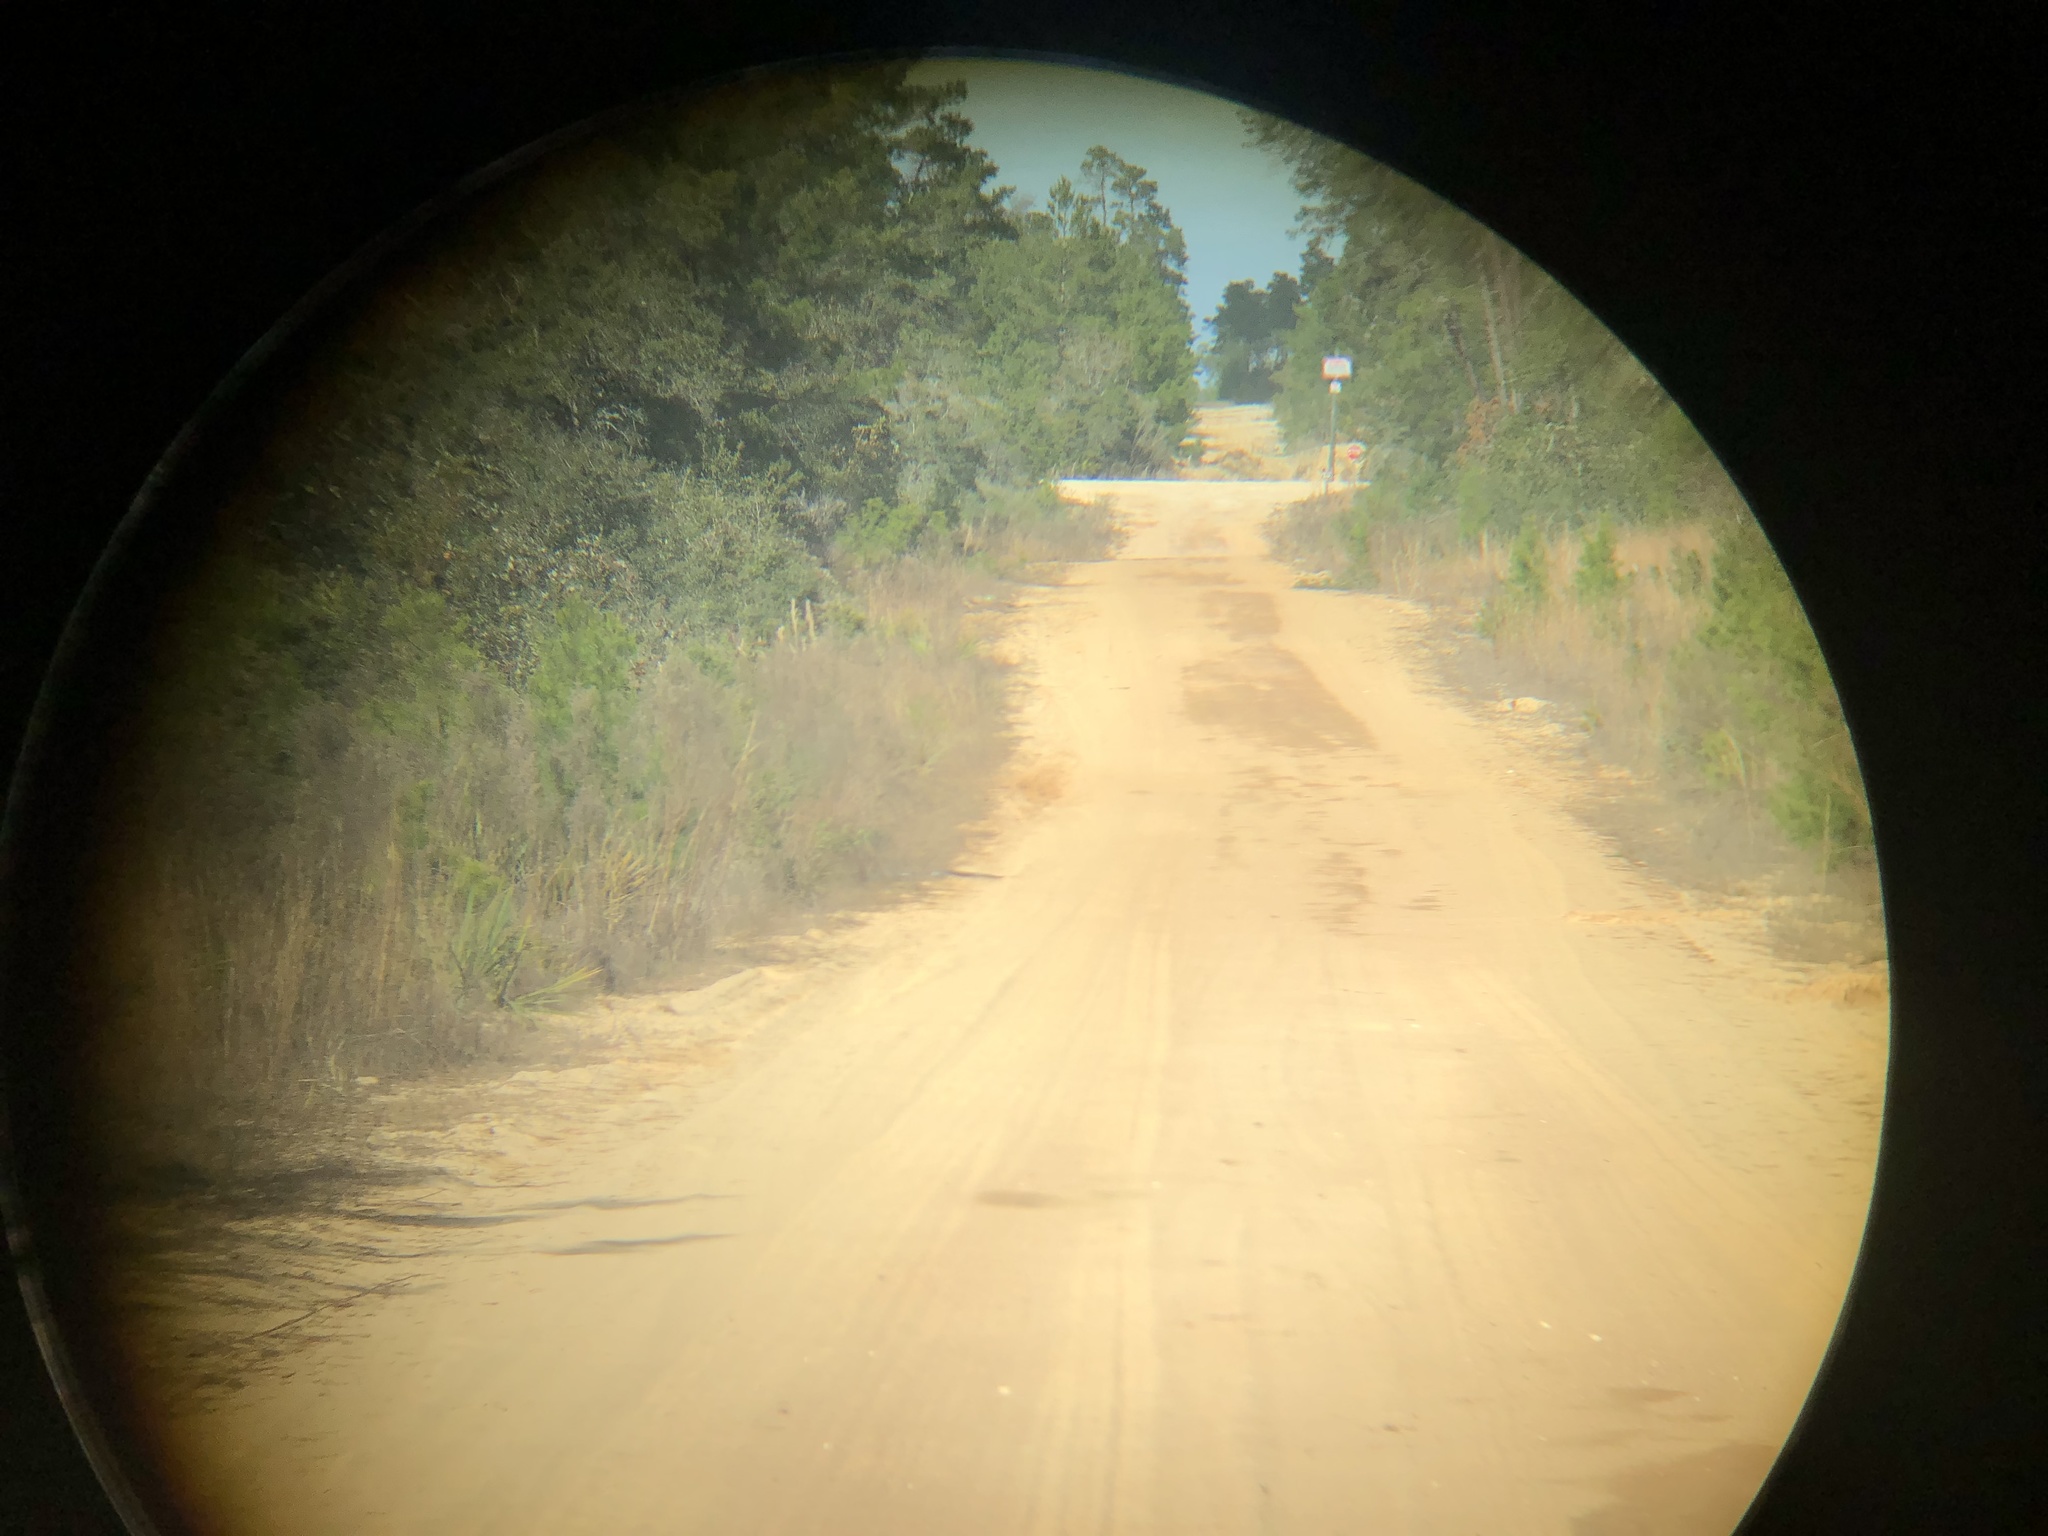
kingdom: Animalia
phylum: Chordata
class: Squamata
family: Colubridae
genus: Drymarchon
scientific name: Drymarchon couperi
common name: Eastern indigo snake
